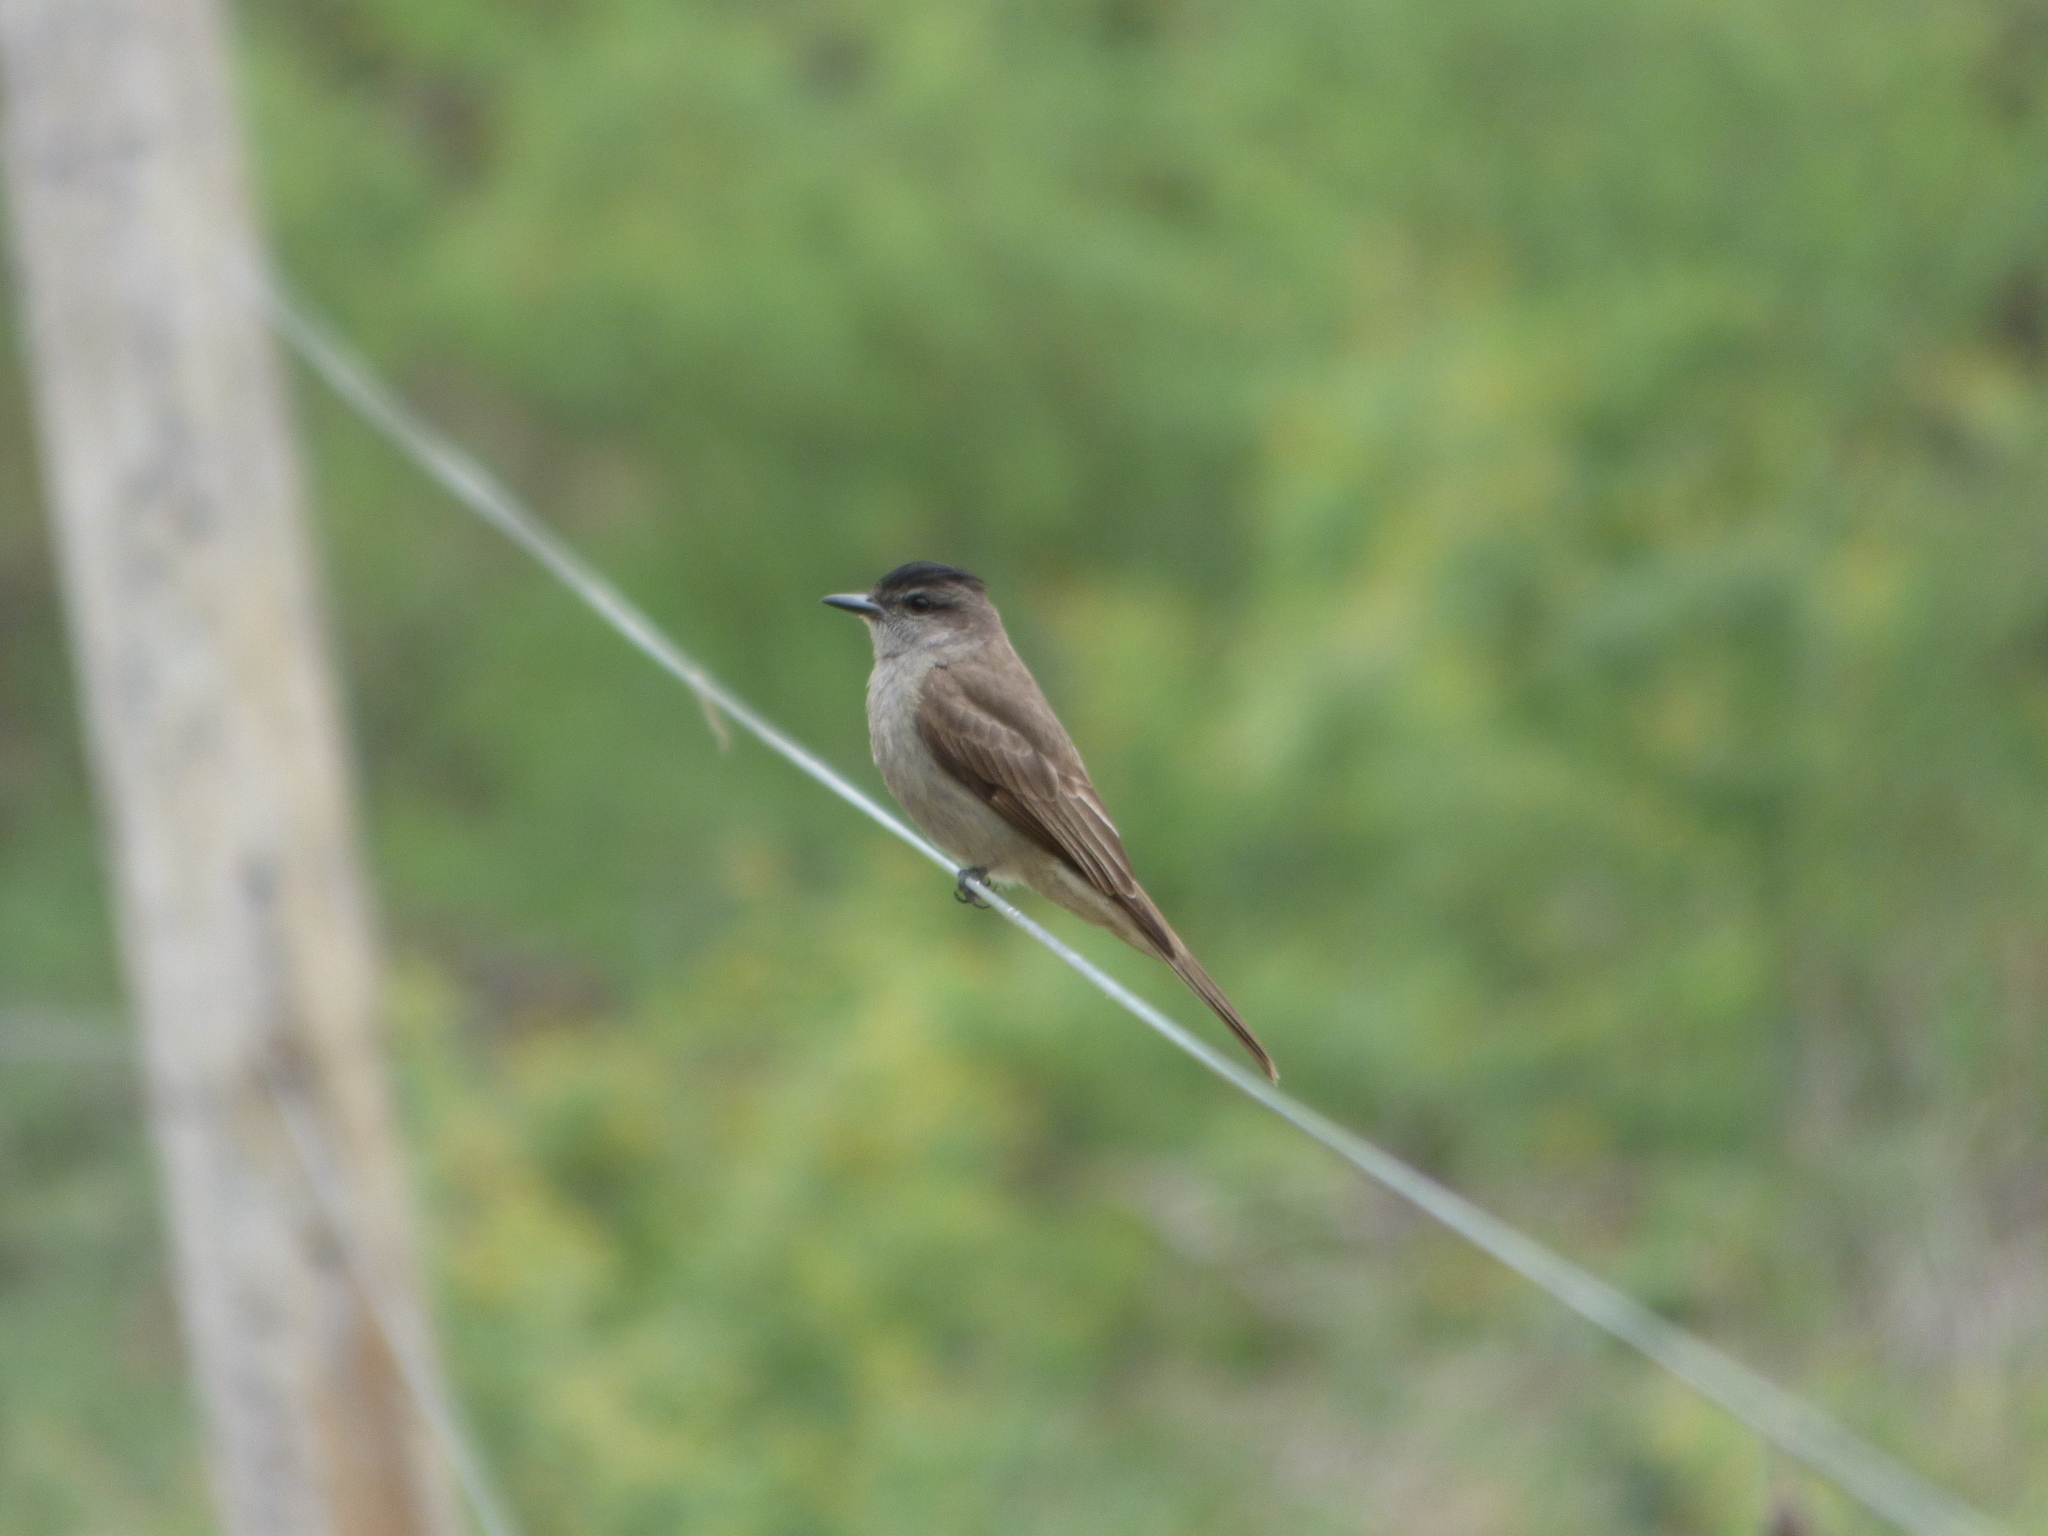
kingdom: Animalia
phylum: Chordata
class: Aves
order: Passeriformes
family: Tyrannidae
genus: Empidonomus
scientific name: Empidonomus aurantioatrocristatus
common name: Crowned slaty flycatcher
